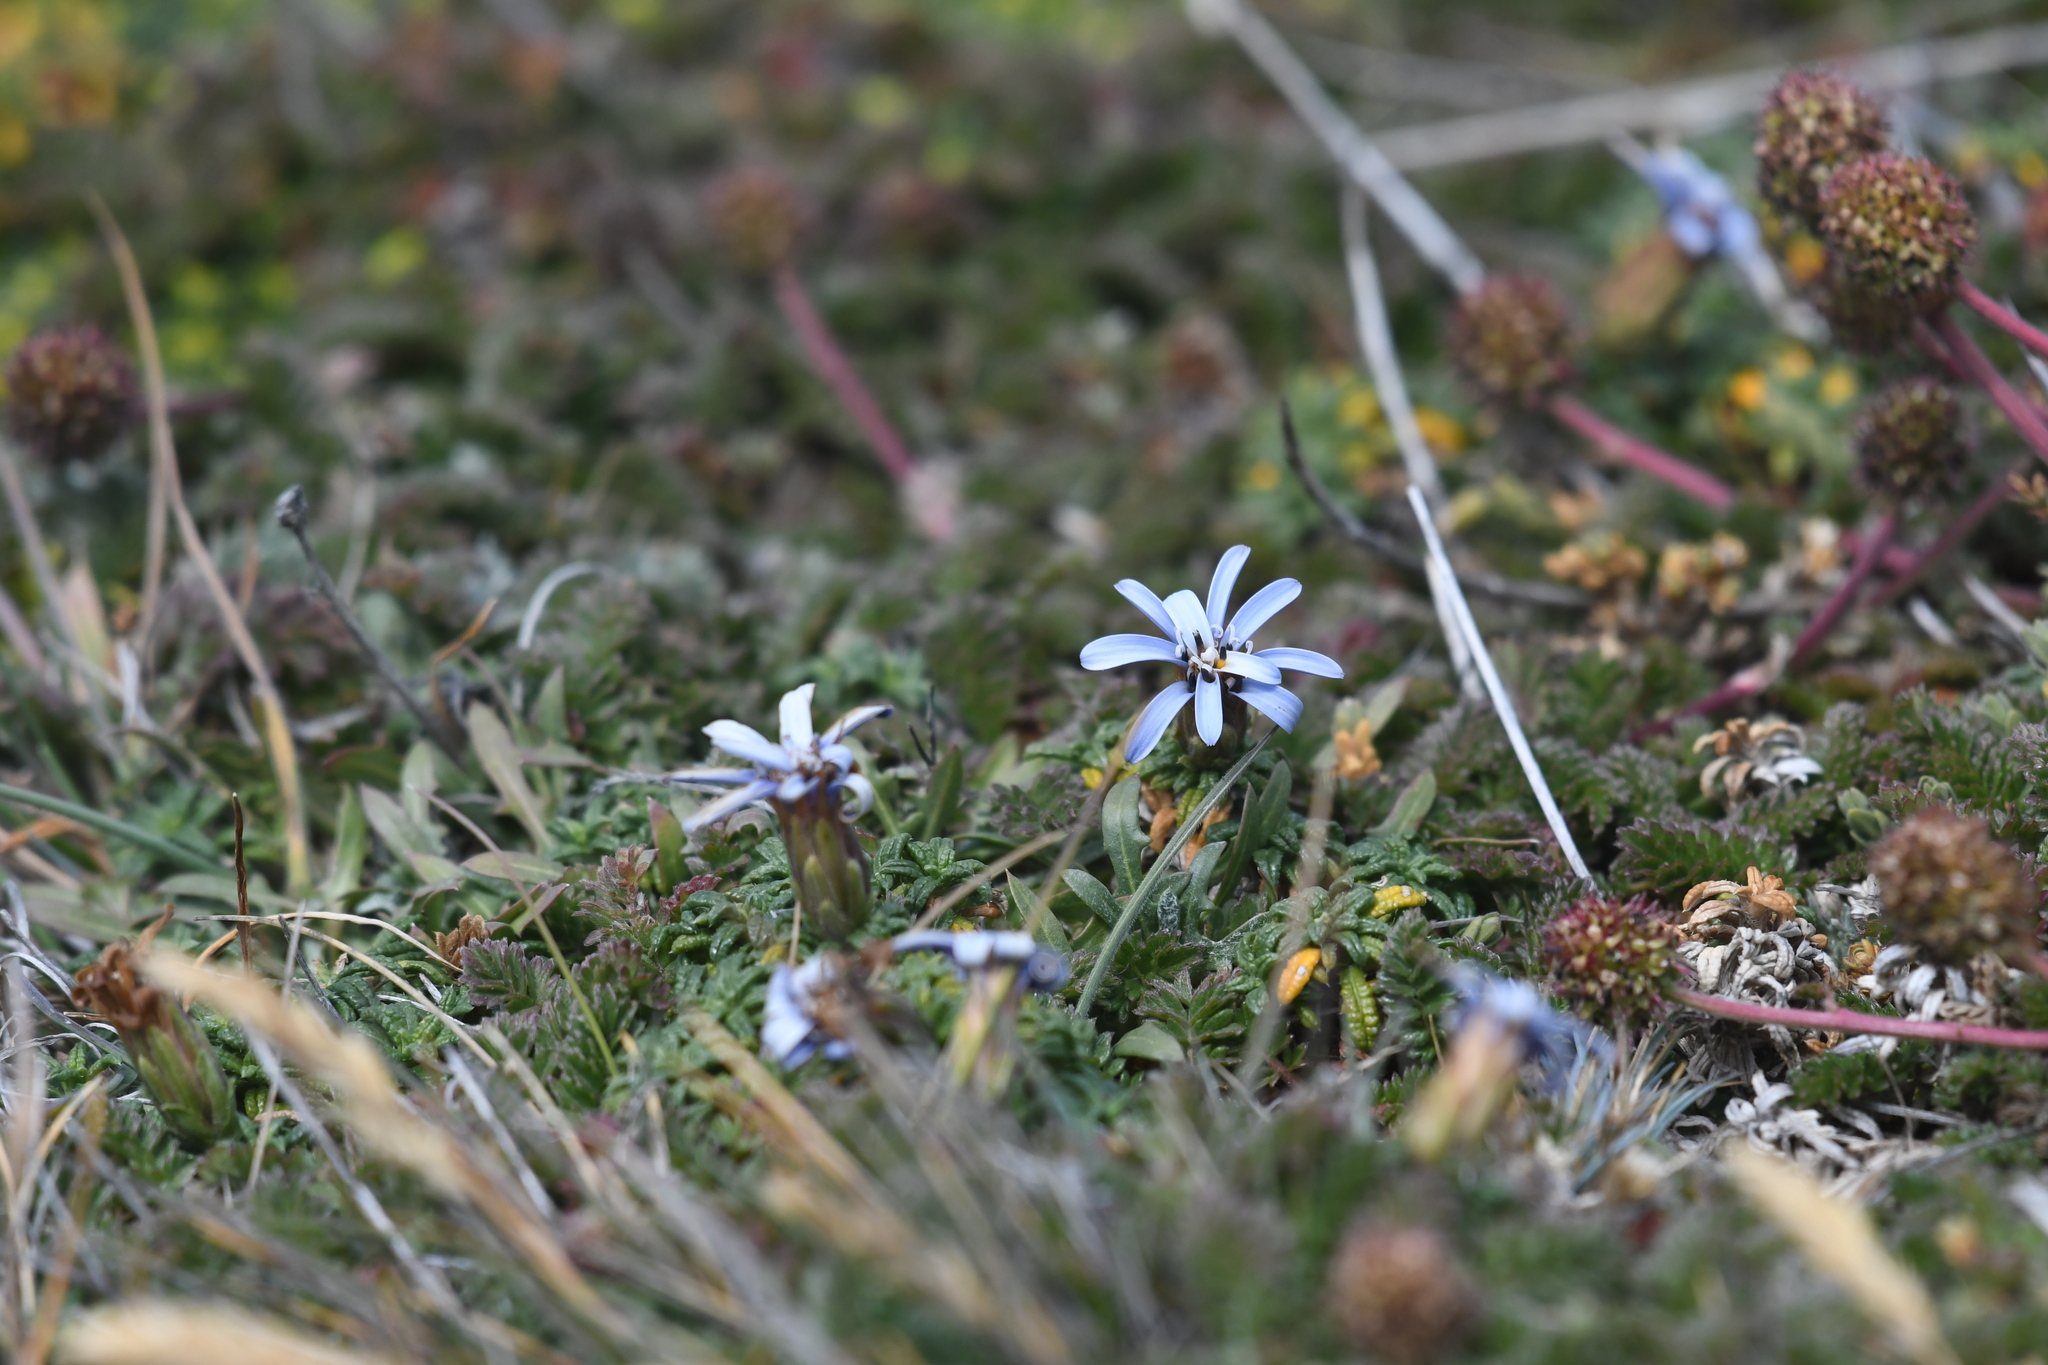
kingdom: Plantae
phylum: Tracheophyta
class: Magnoliopsida
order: Asterales
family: Asteraceae
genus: Perezia
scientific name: Perezia recurvata
